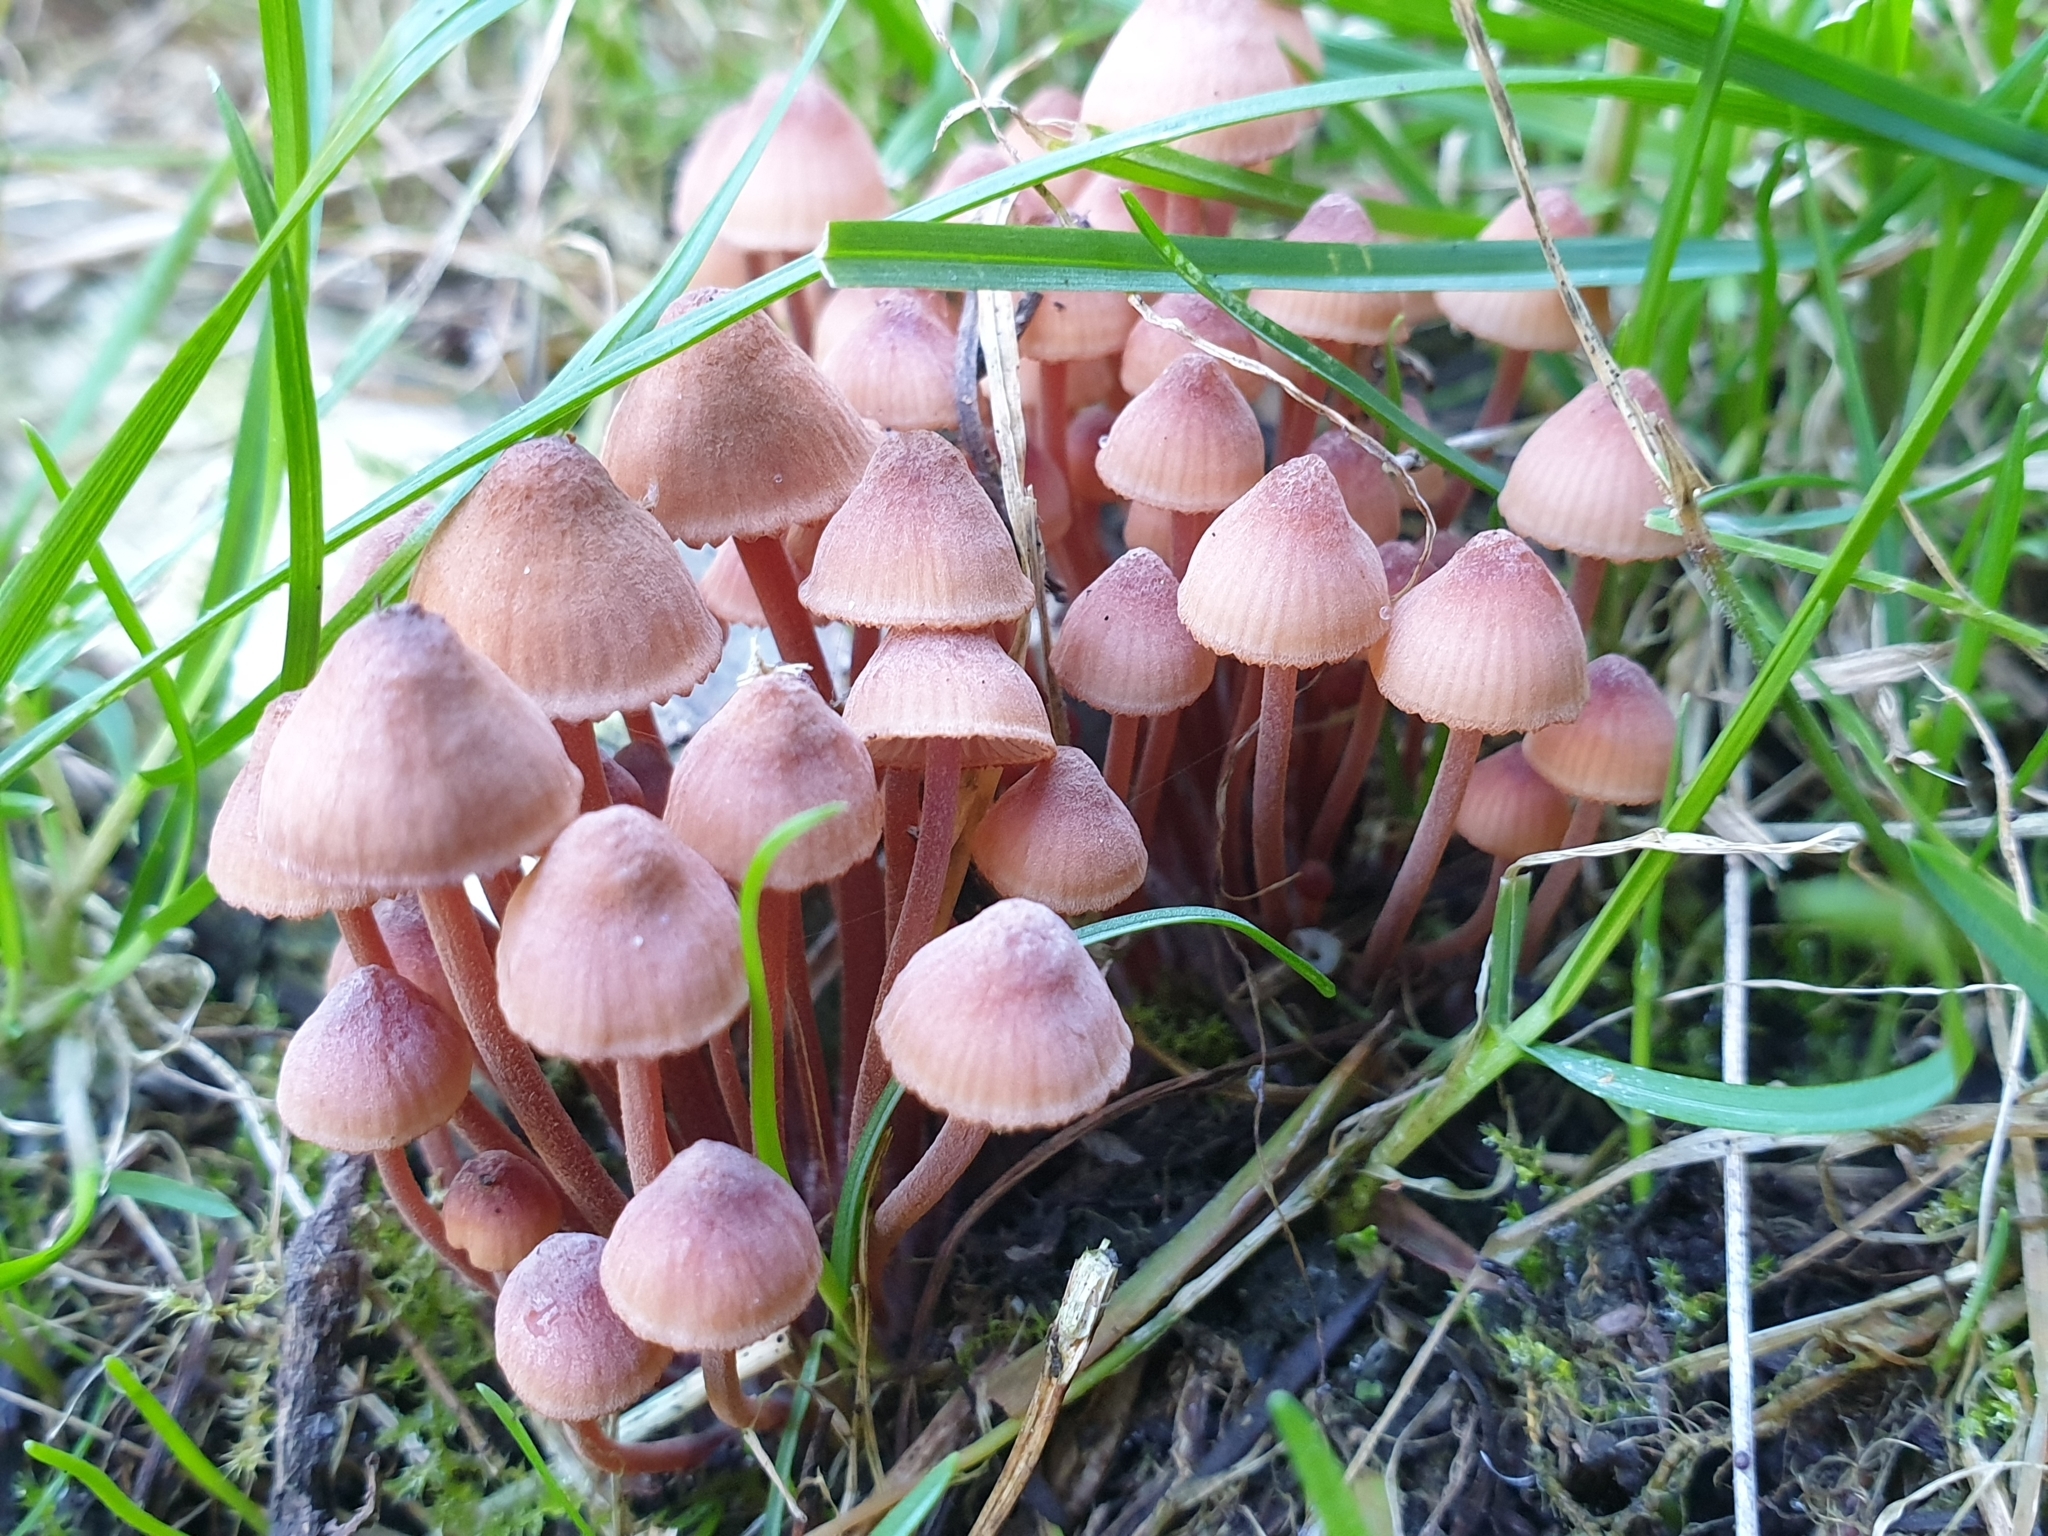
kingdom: Fungi
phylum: Basidiomycota
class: Agaricomycetes
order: Agaricales
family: Mycenaceae
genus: Mycena
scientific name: Mycena mariae
